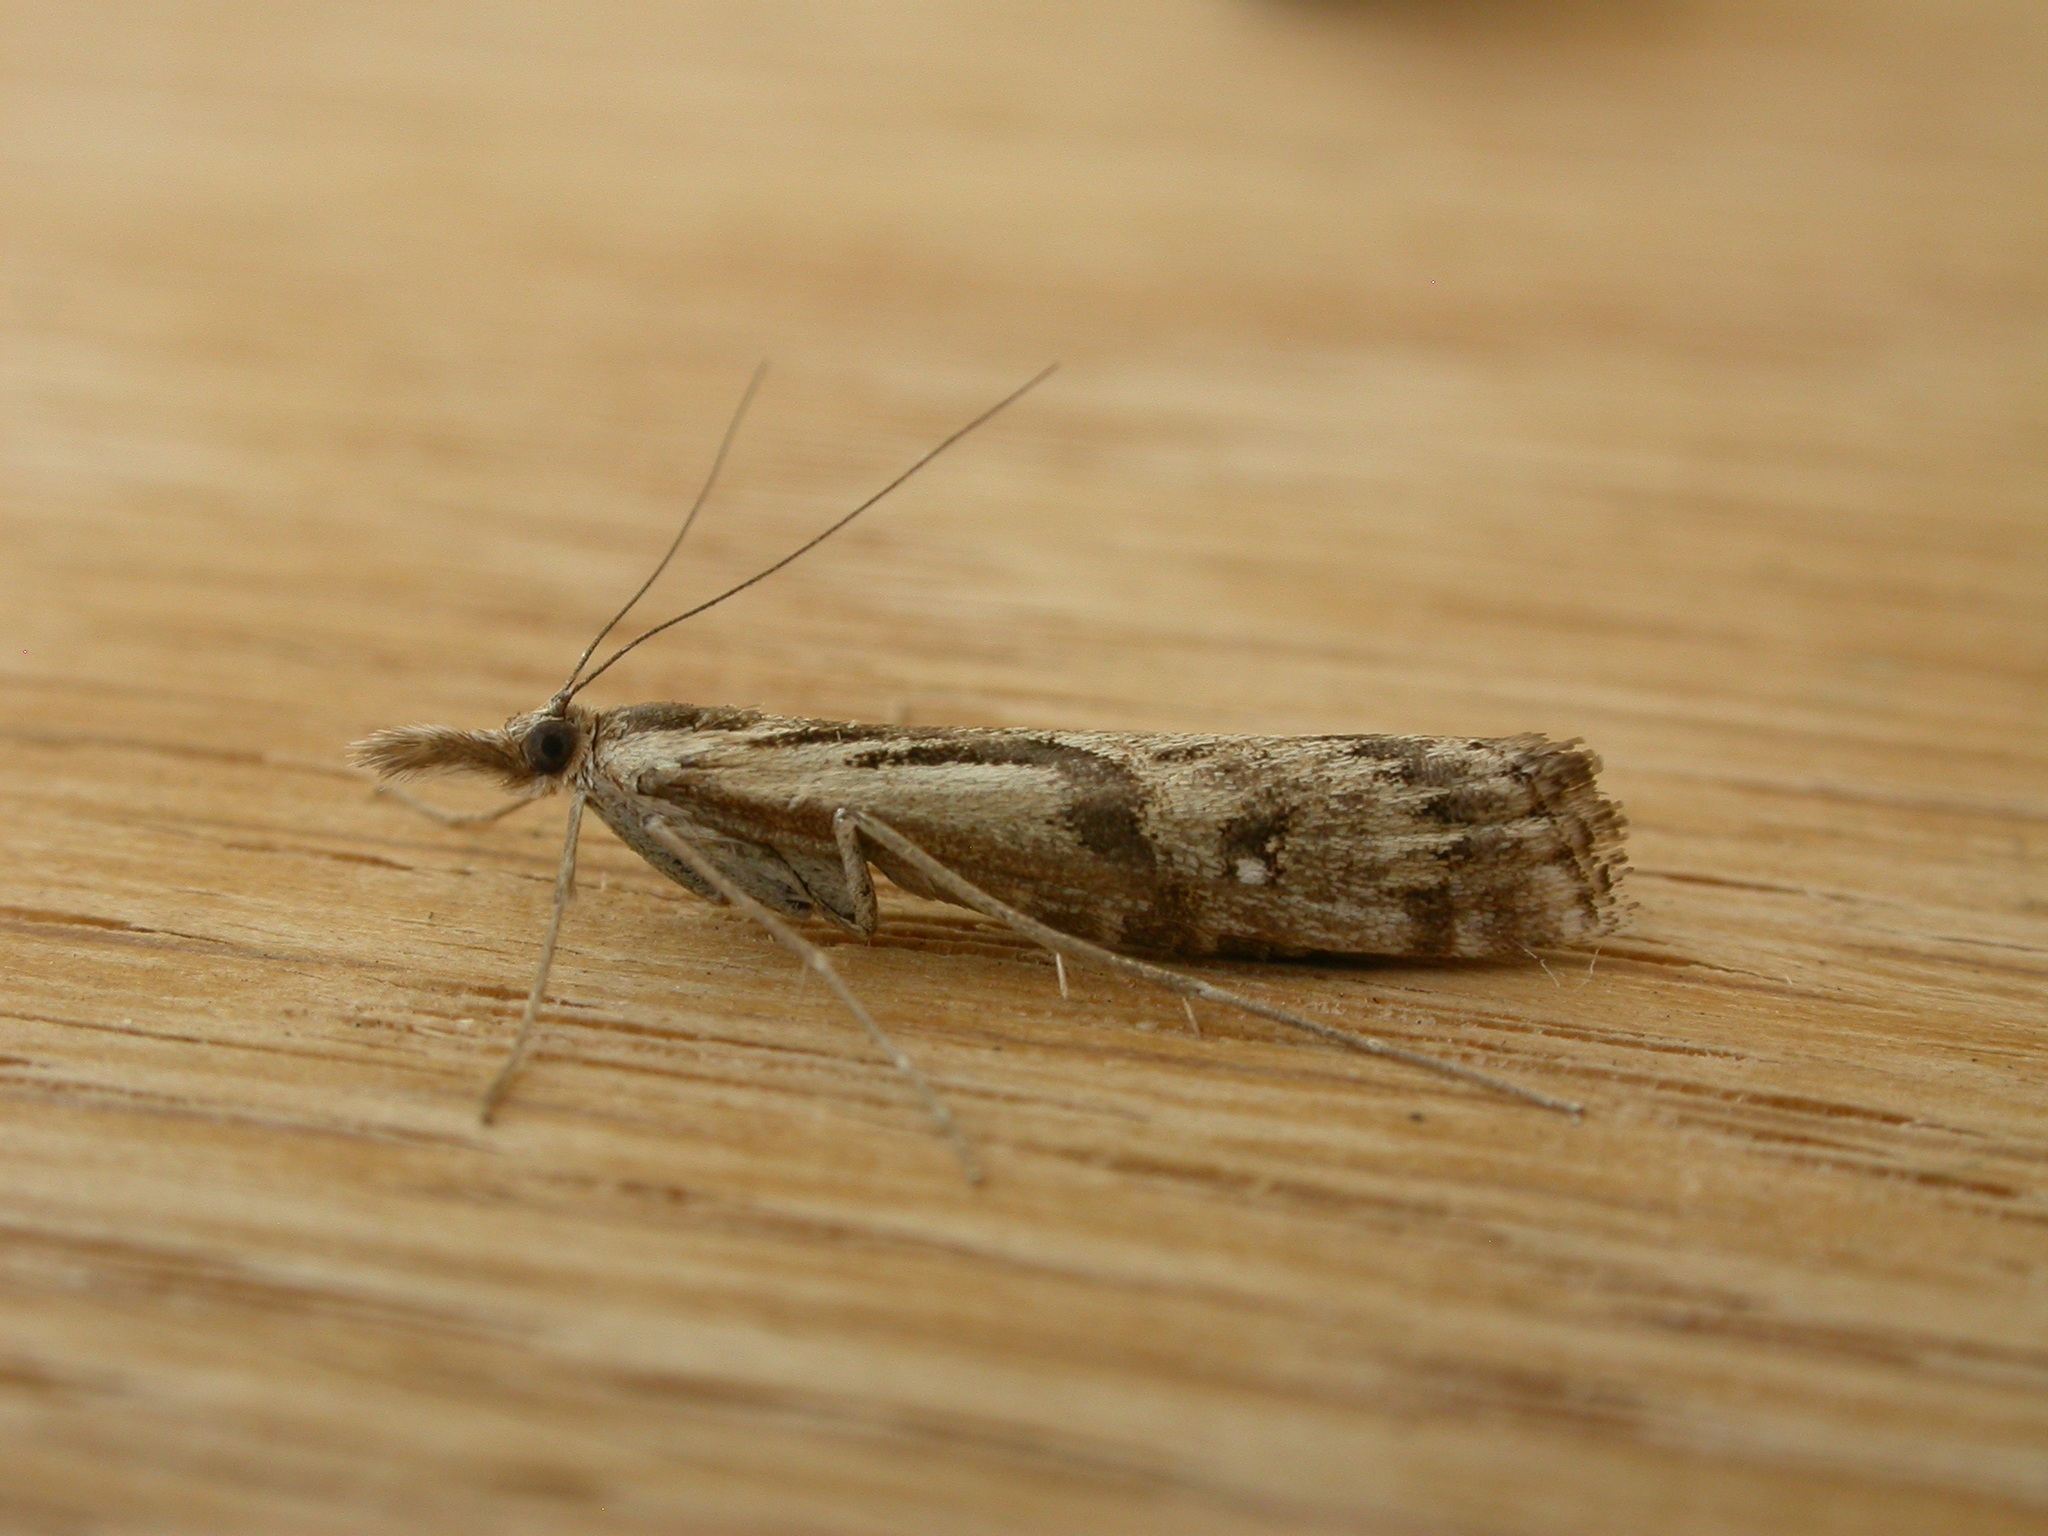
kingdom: Animalia
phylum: Arthropoda
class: Insecta
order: Lepidoptera
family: Crambidae
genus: Hednota
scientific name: Hednota pedionoma
